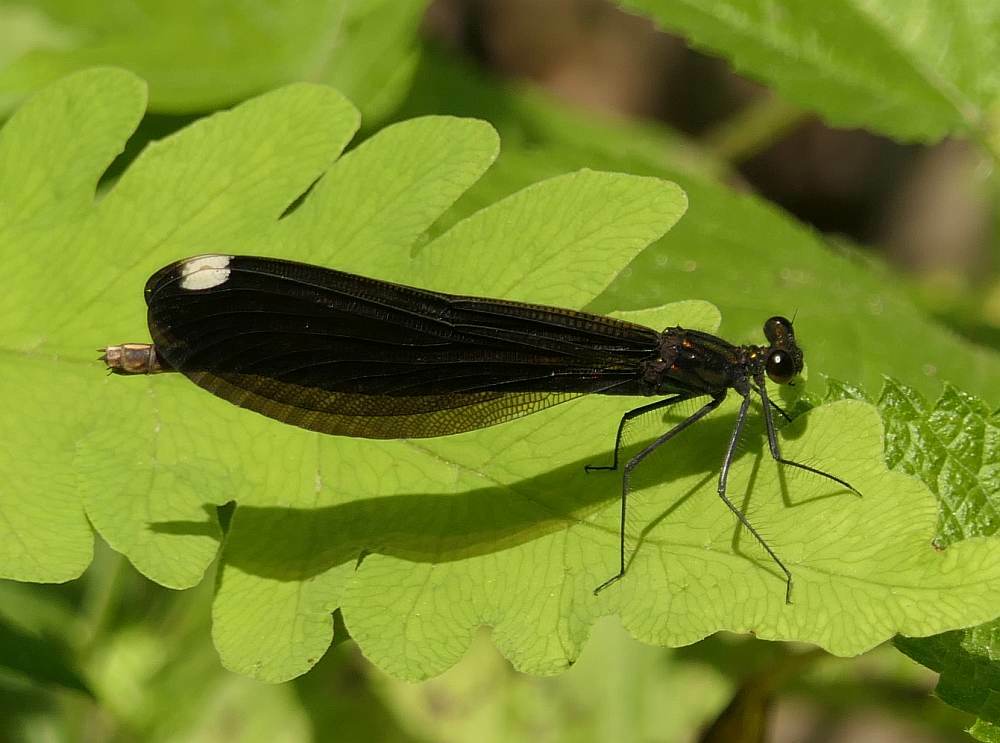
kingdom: Animalia
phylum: Arthropoda
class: Insecta
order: Odonata
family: Calopterygidae
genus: Calopteryx
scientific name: Calopteryx maculata
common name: Ebony jewelwing
